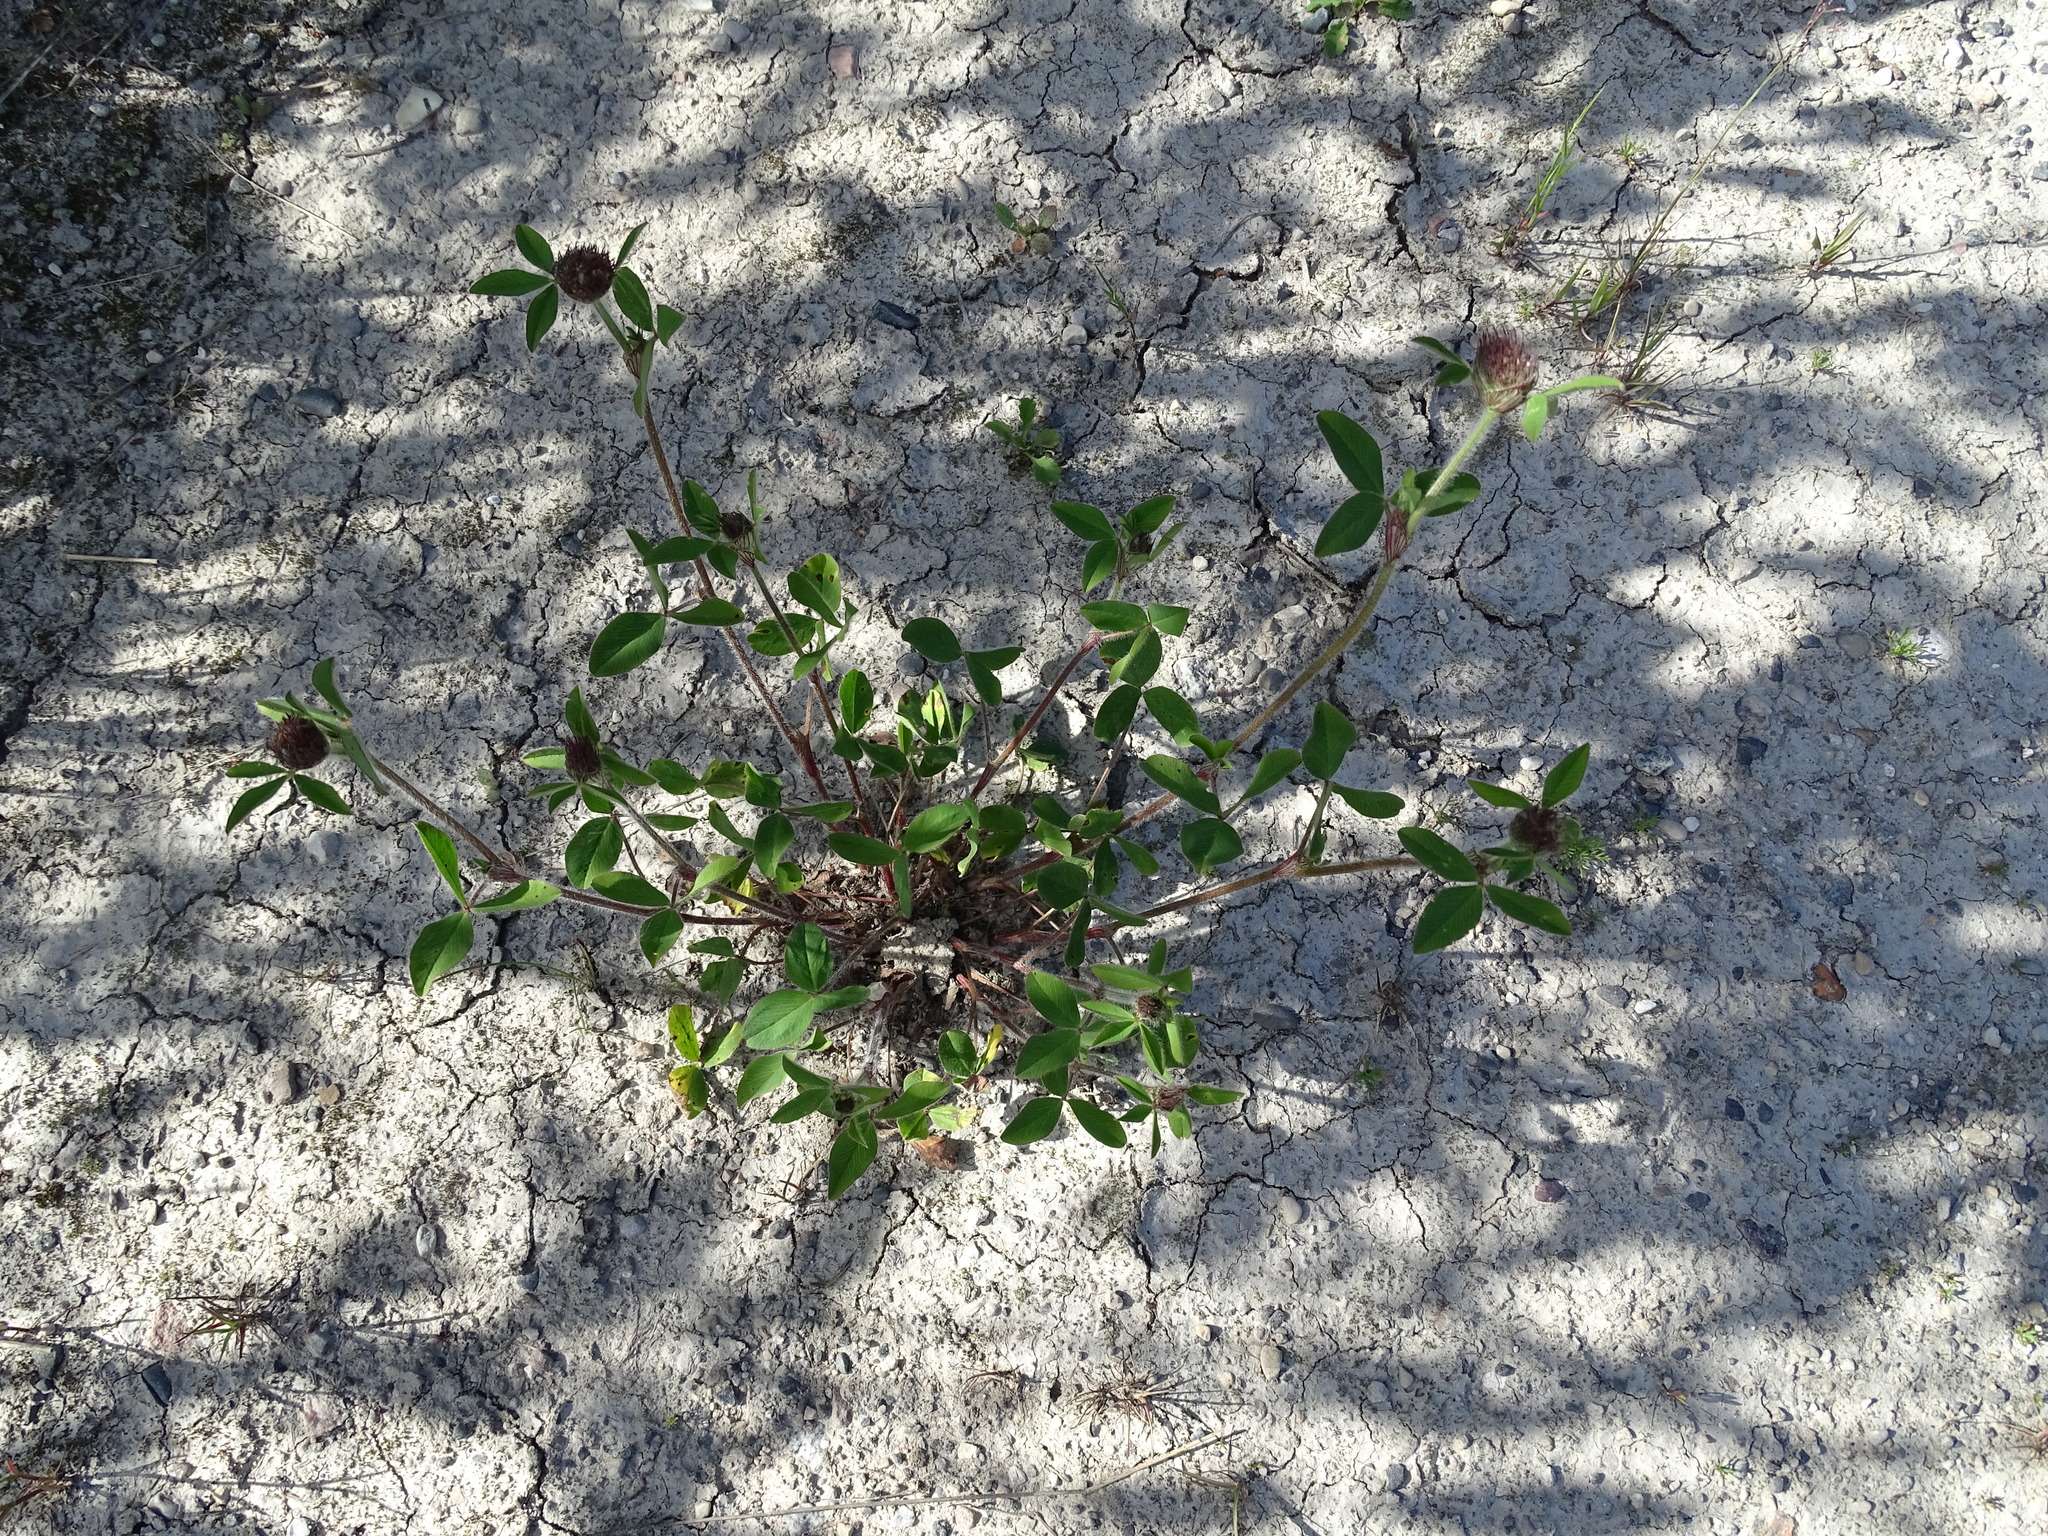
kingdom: Plantae
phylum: Tracheophyta
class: Magnoliopsida
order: Fabales
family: Fabaceae
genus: Trifolium
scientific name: Trifolium pratense
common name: Red clover
